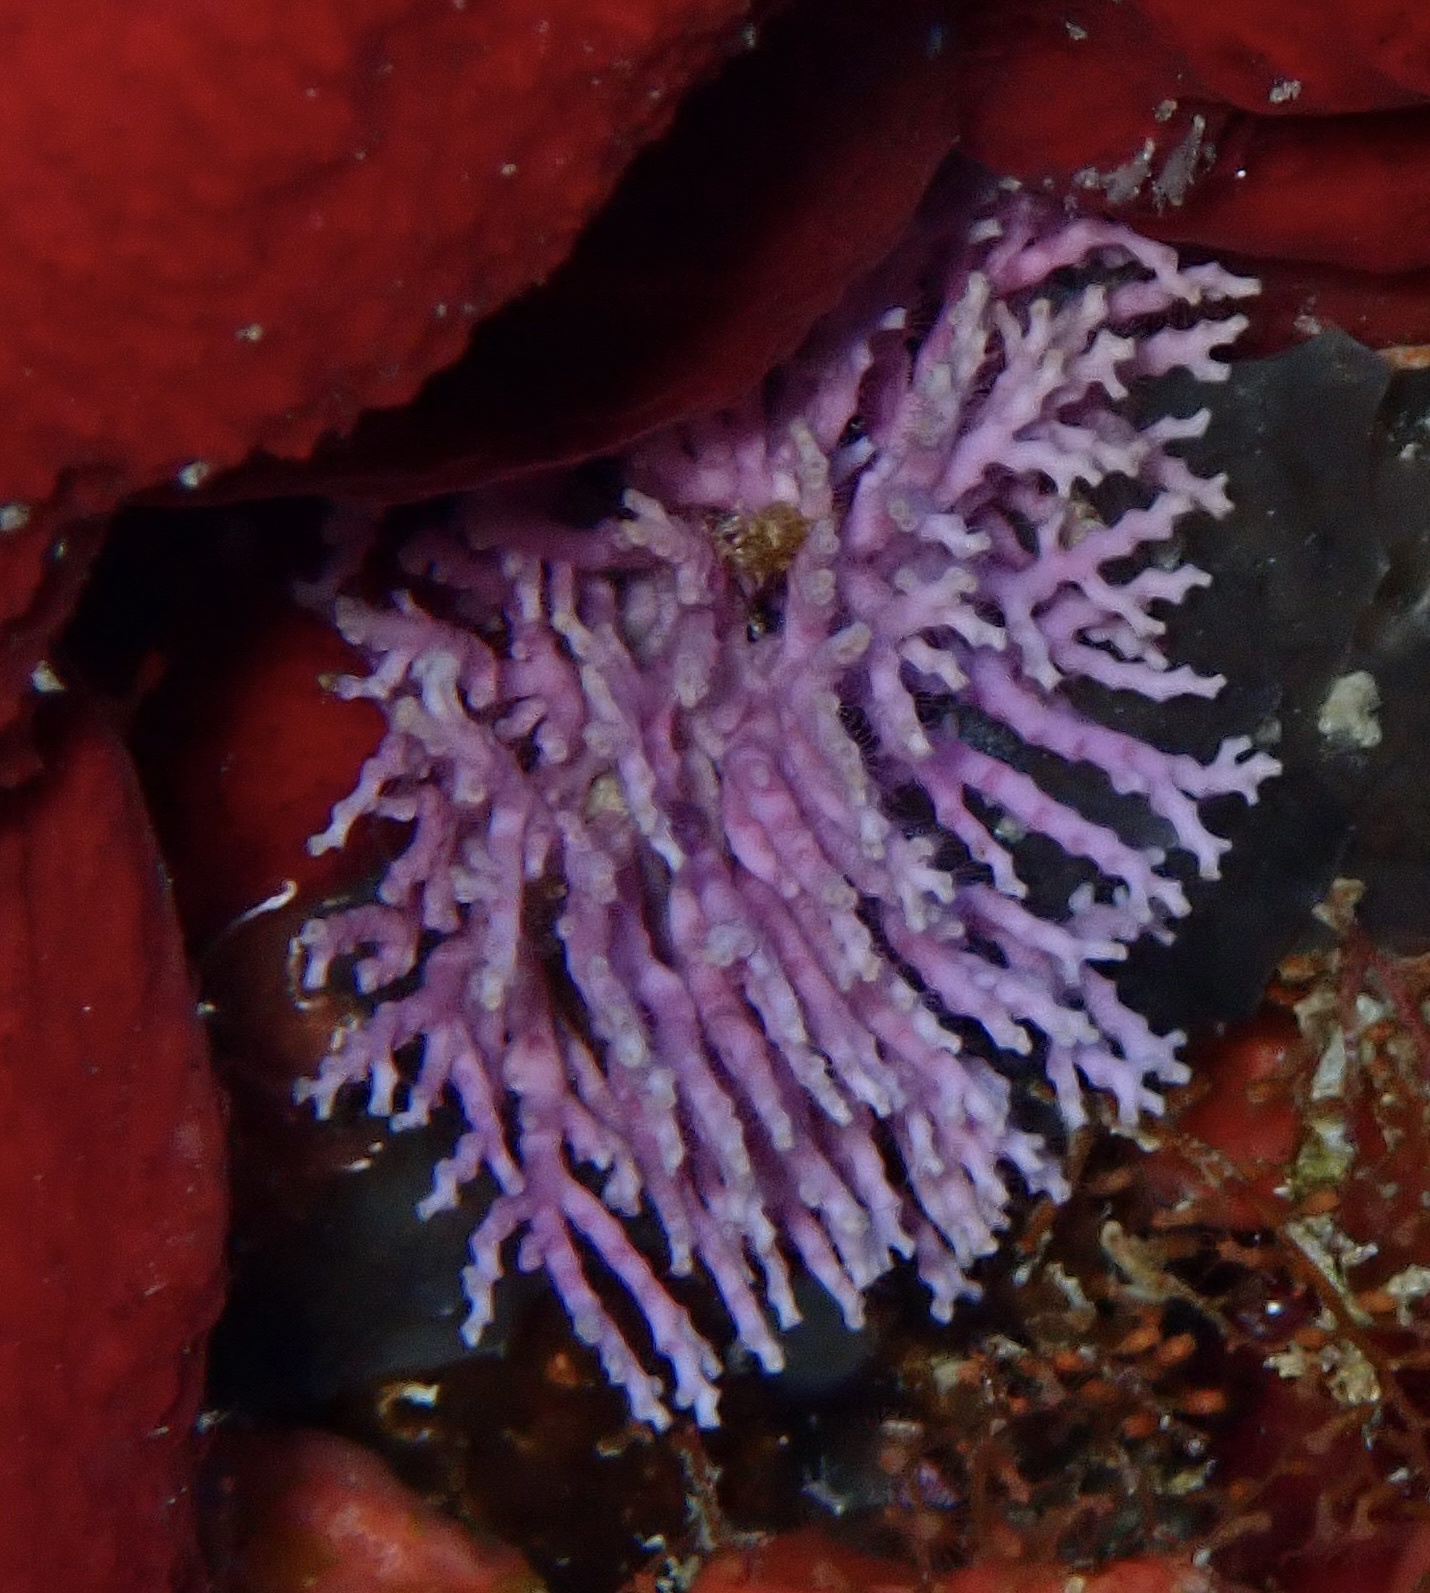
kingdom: Animalia
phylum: Cnidaria
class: Hydrozoa
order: Anthoathecata
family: Stylasteridae
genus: Stylaster
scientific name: Stylaster roseus
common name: Rose lace coral
